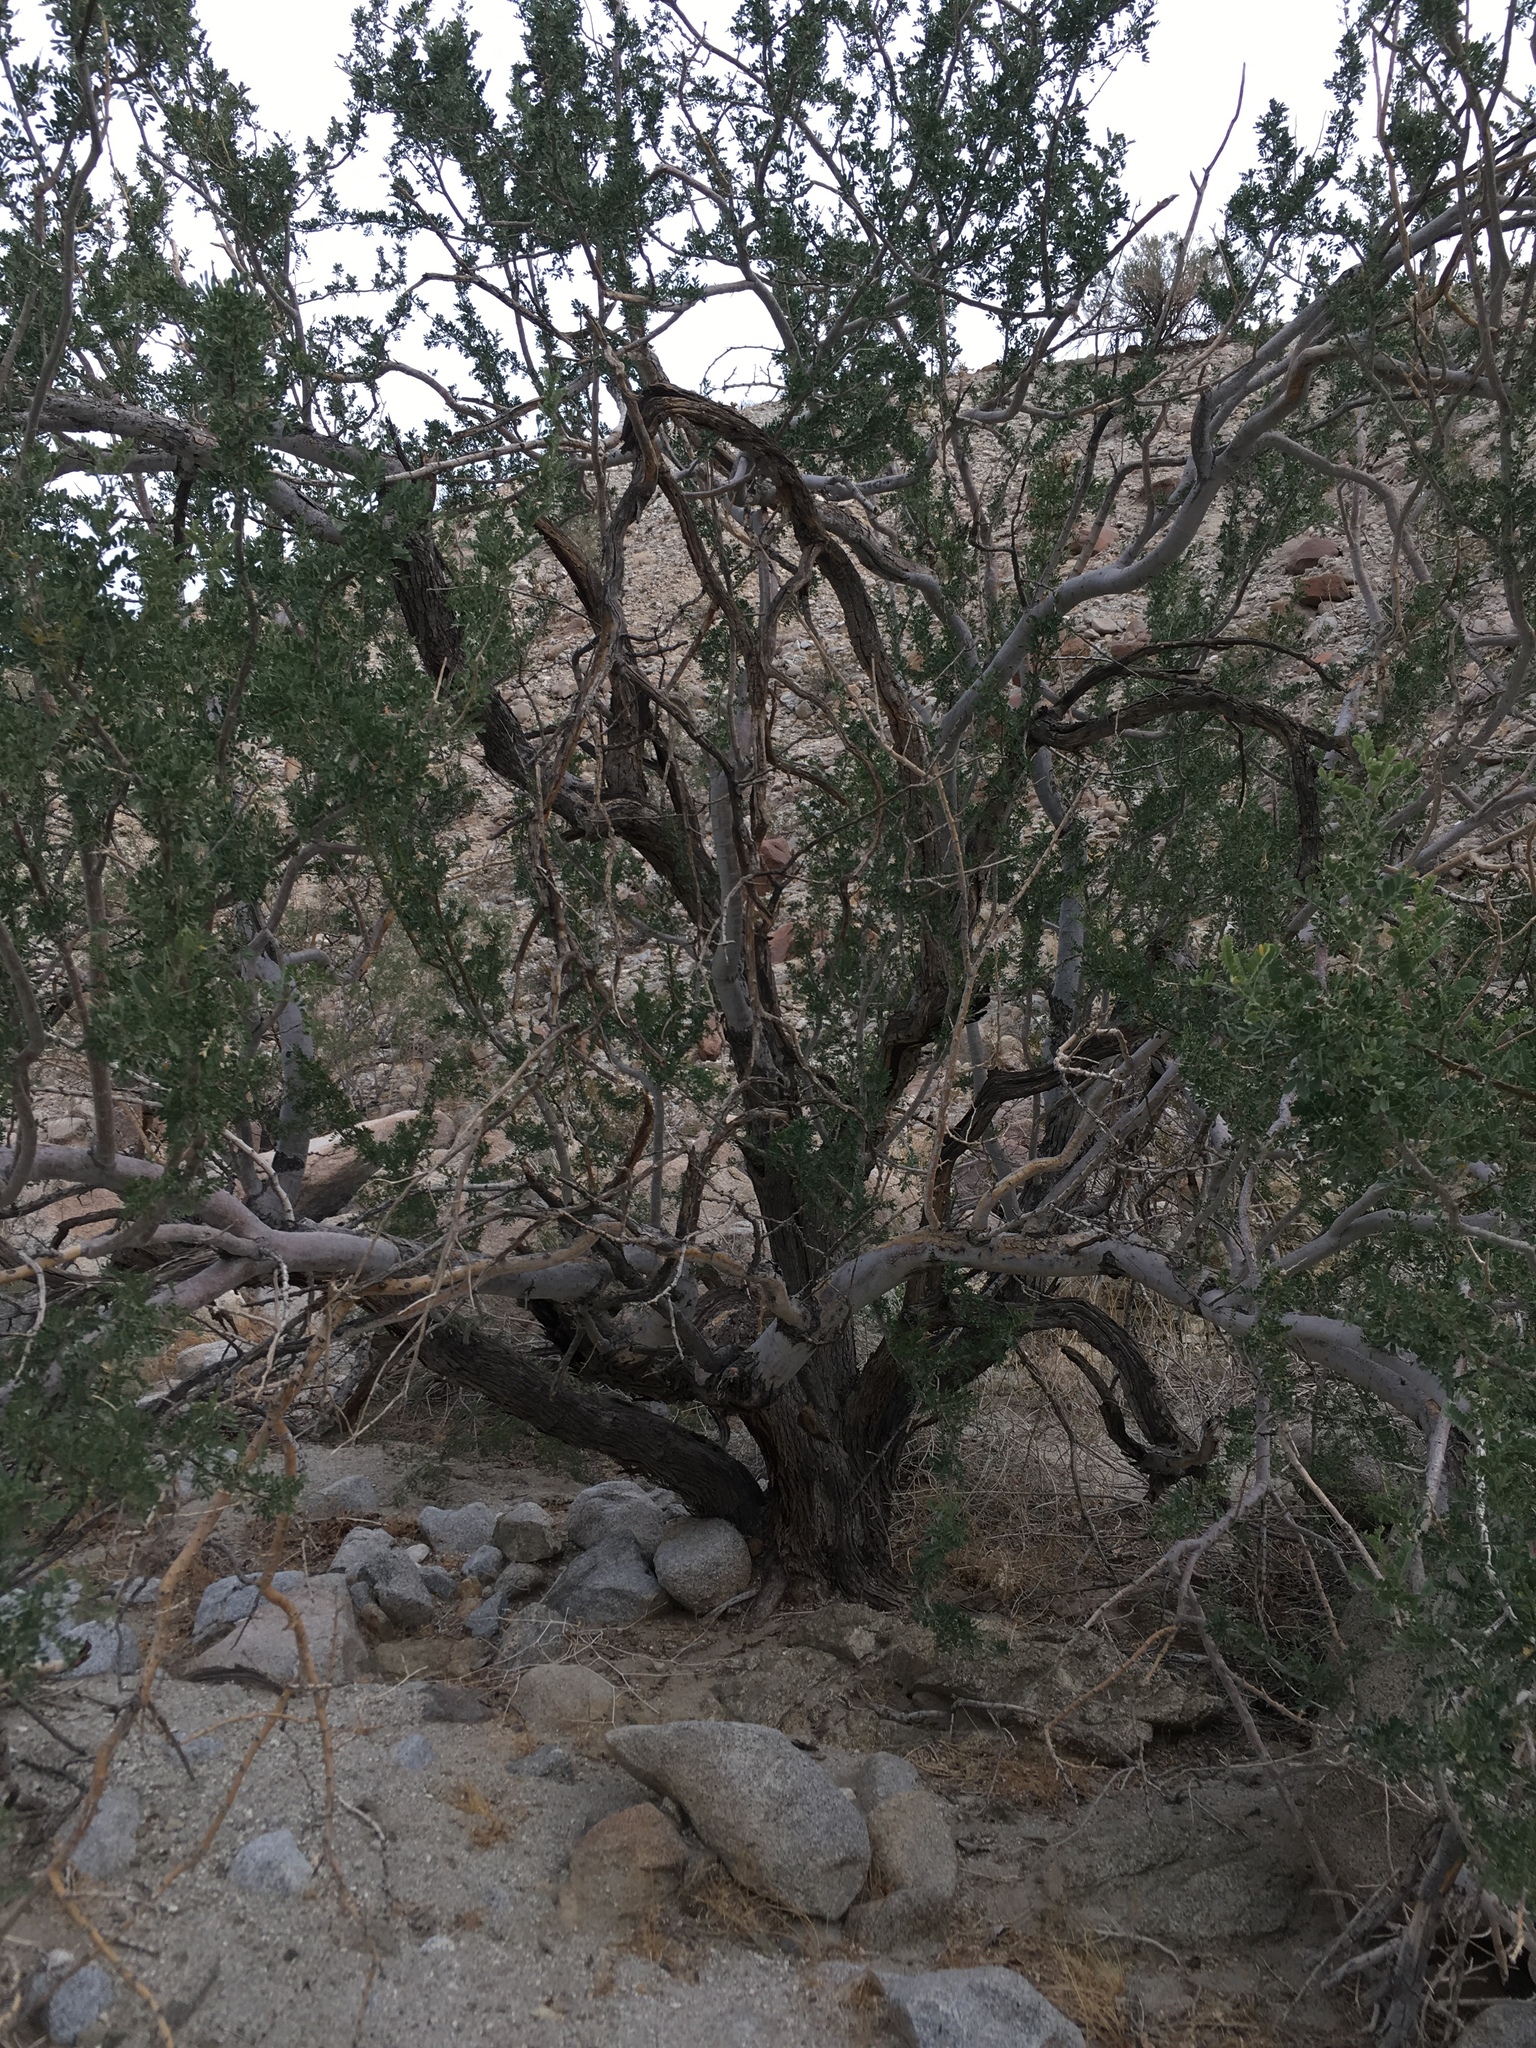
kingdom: Plantae
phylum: Tracheophyta
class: Magnoliopsida
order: Fabales
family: Fabaceae
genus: Olneya
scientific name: Olneya tesota
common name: Desert ironwood
